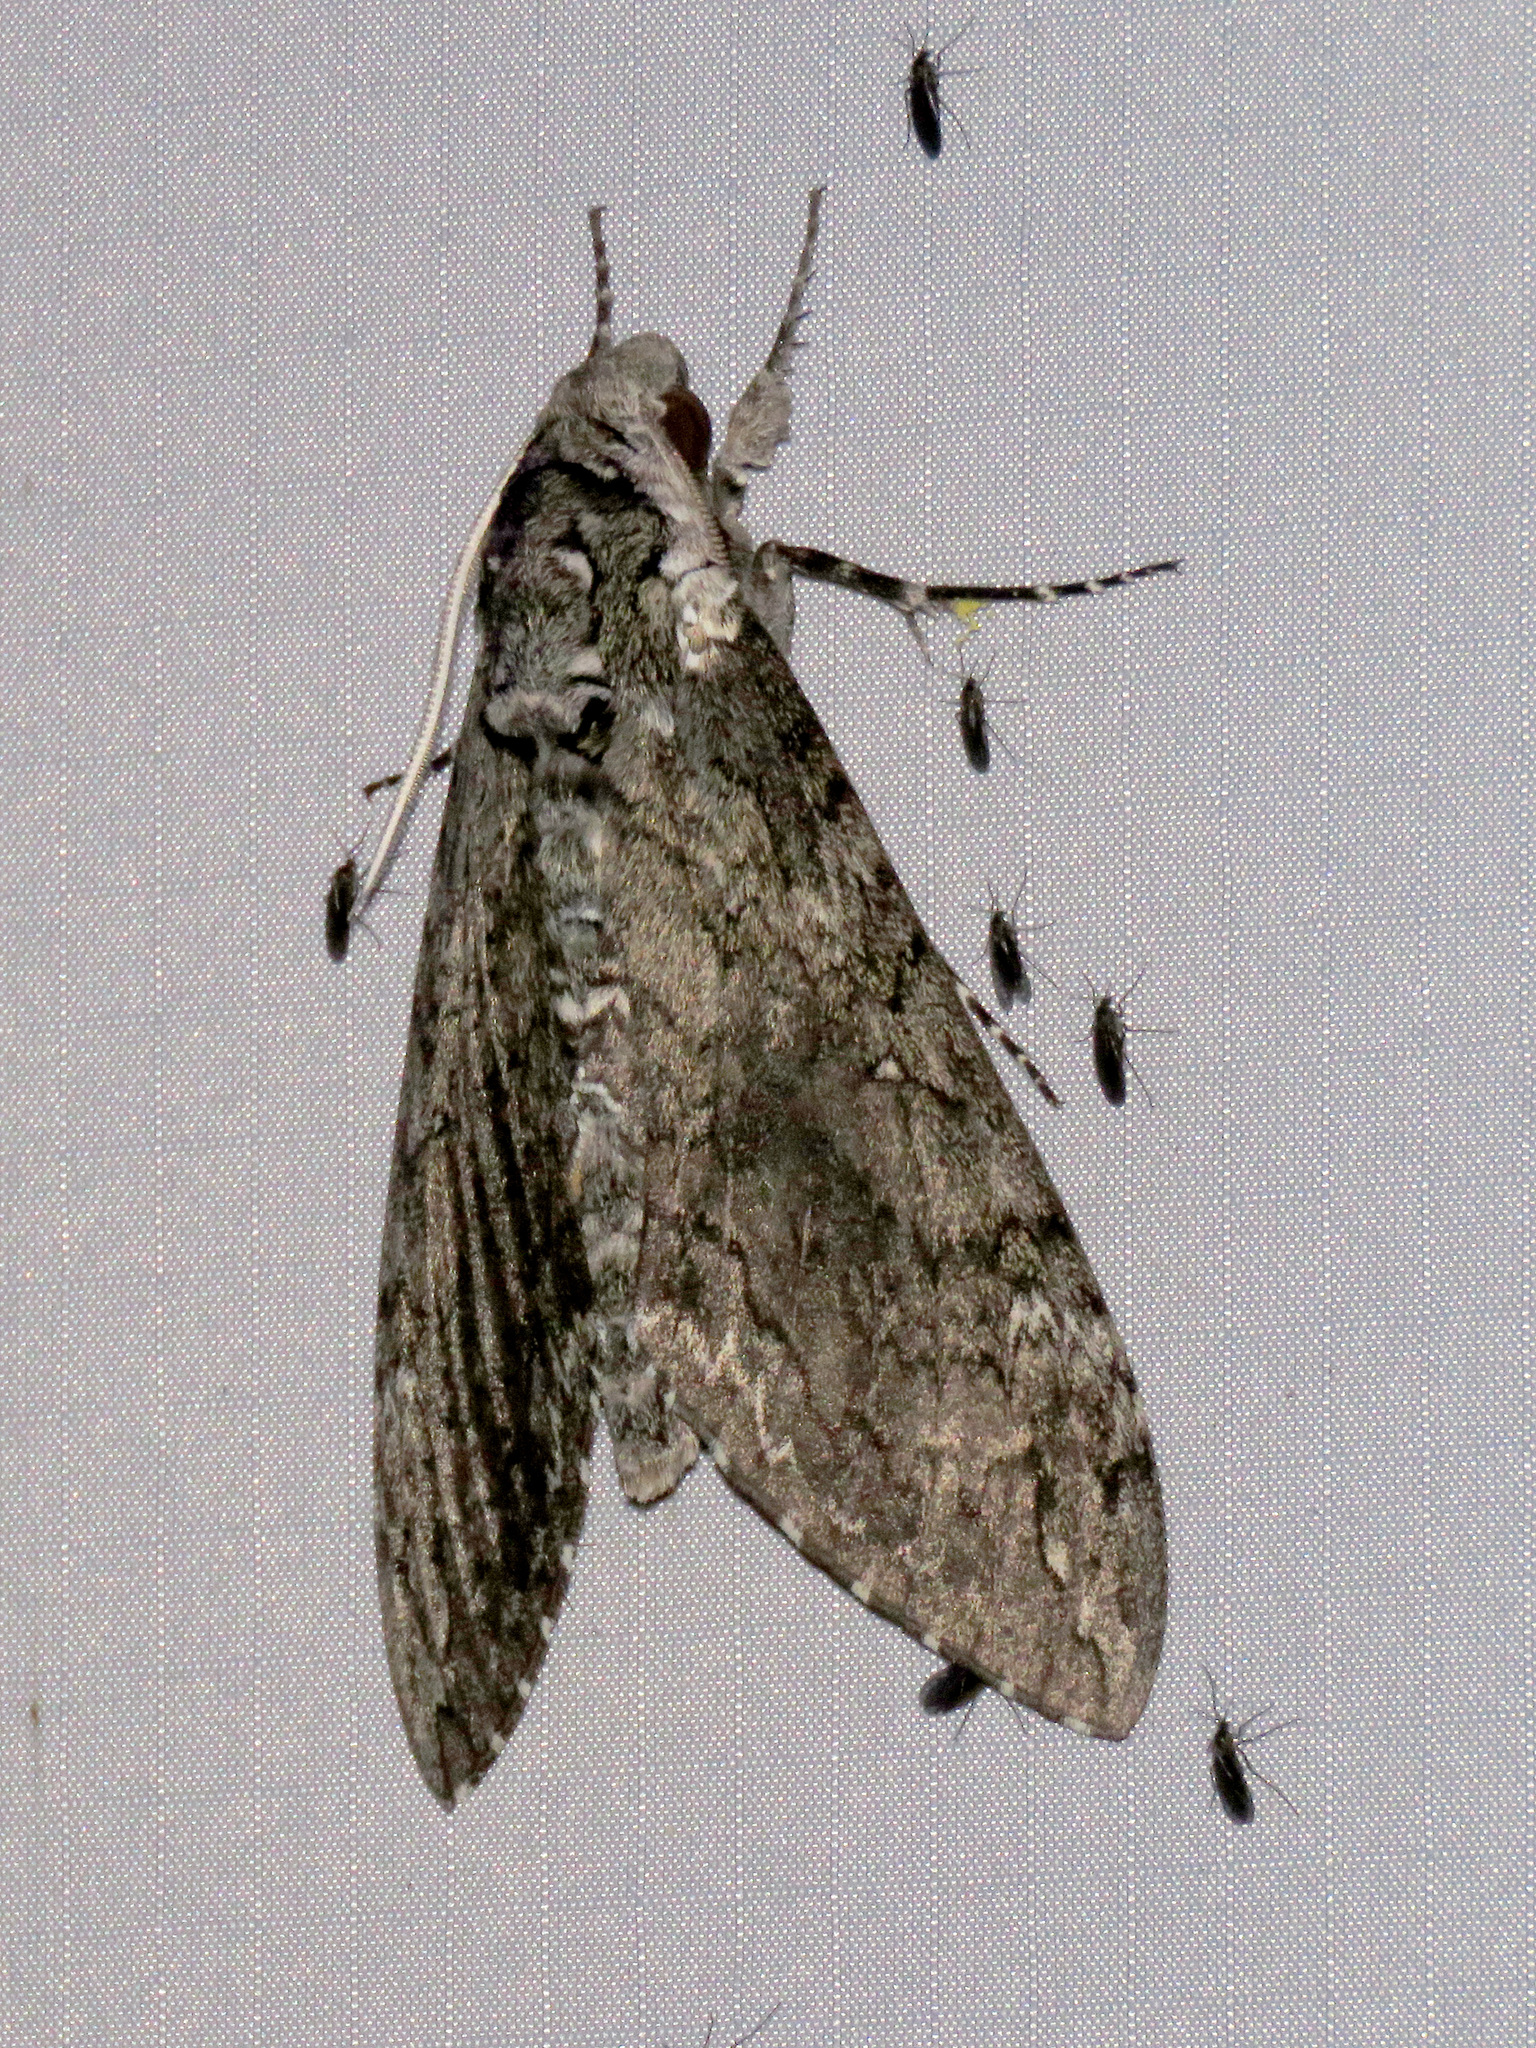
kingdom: Animalia
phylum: Arthropoda
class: Insecta
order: Lepidoptera
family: Sphingidae
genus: Manduca
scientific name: Manduca sexta
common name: Carolina sphinx
